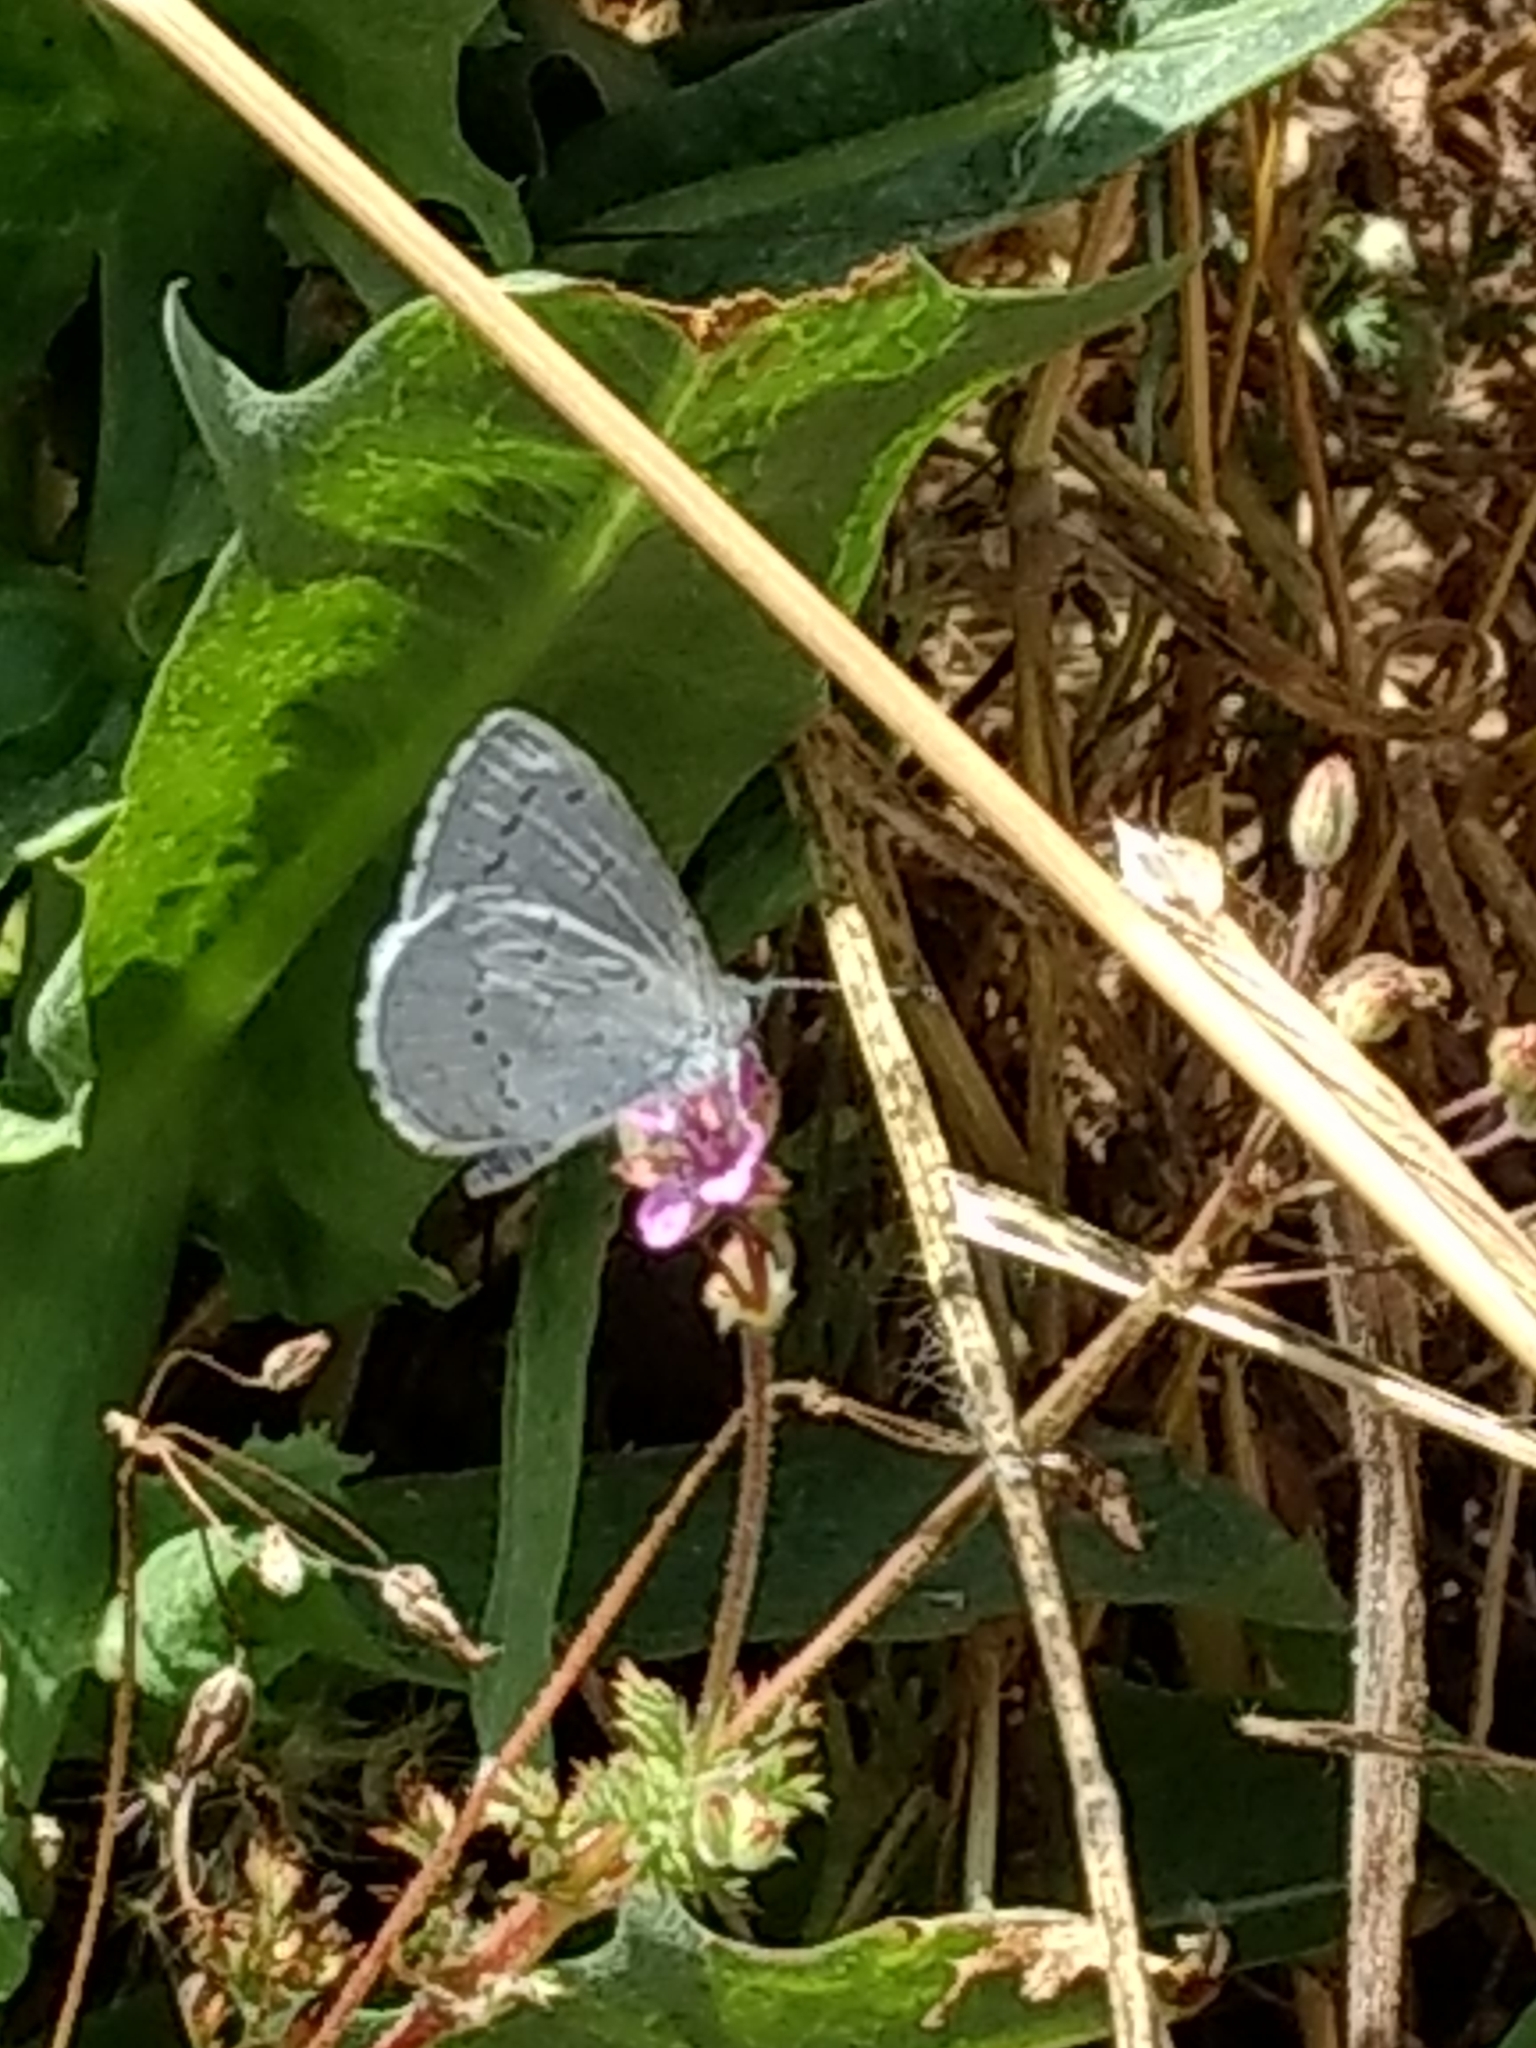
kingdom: Animalia
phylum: Arthropoda
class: Insecta
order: Lepidoptera
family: Lycaenidae
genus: Celastrina
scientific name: Celastrina ladon
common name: Spring azure
